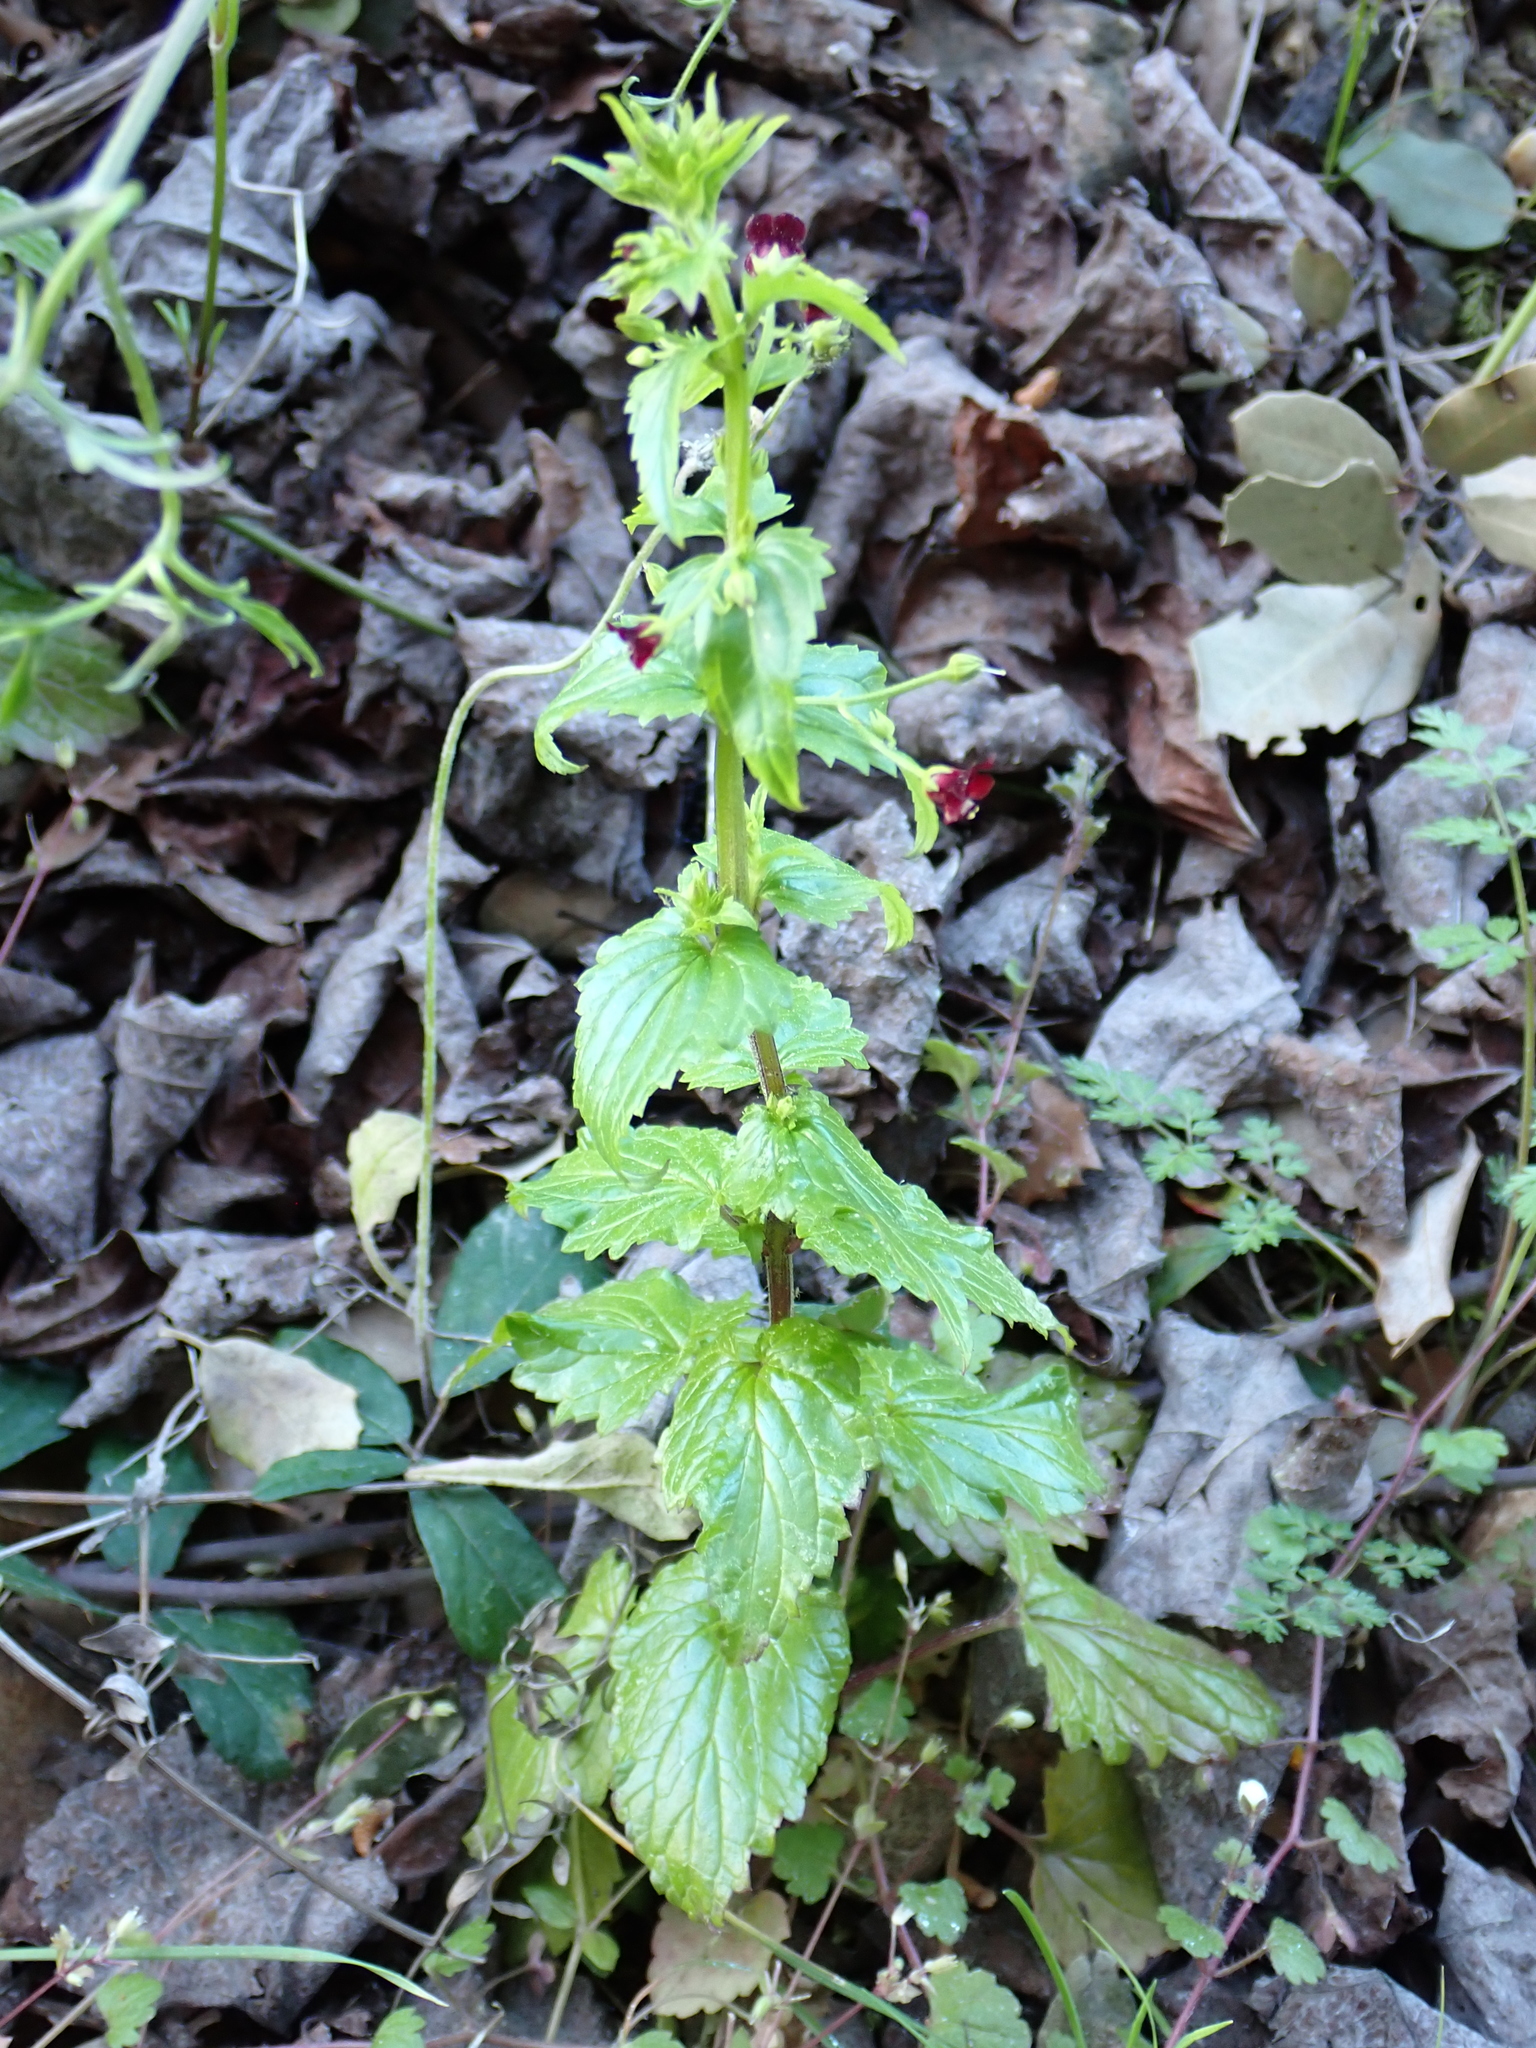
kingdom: Plantae
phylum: Tracheophyta
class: Magnoliopsida
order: Lamiales
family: Scrophulariaceae
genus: Scrophularia
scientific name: Scrophularia peregrina
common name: Mediterranean figwort
